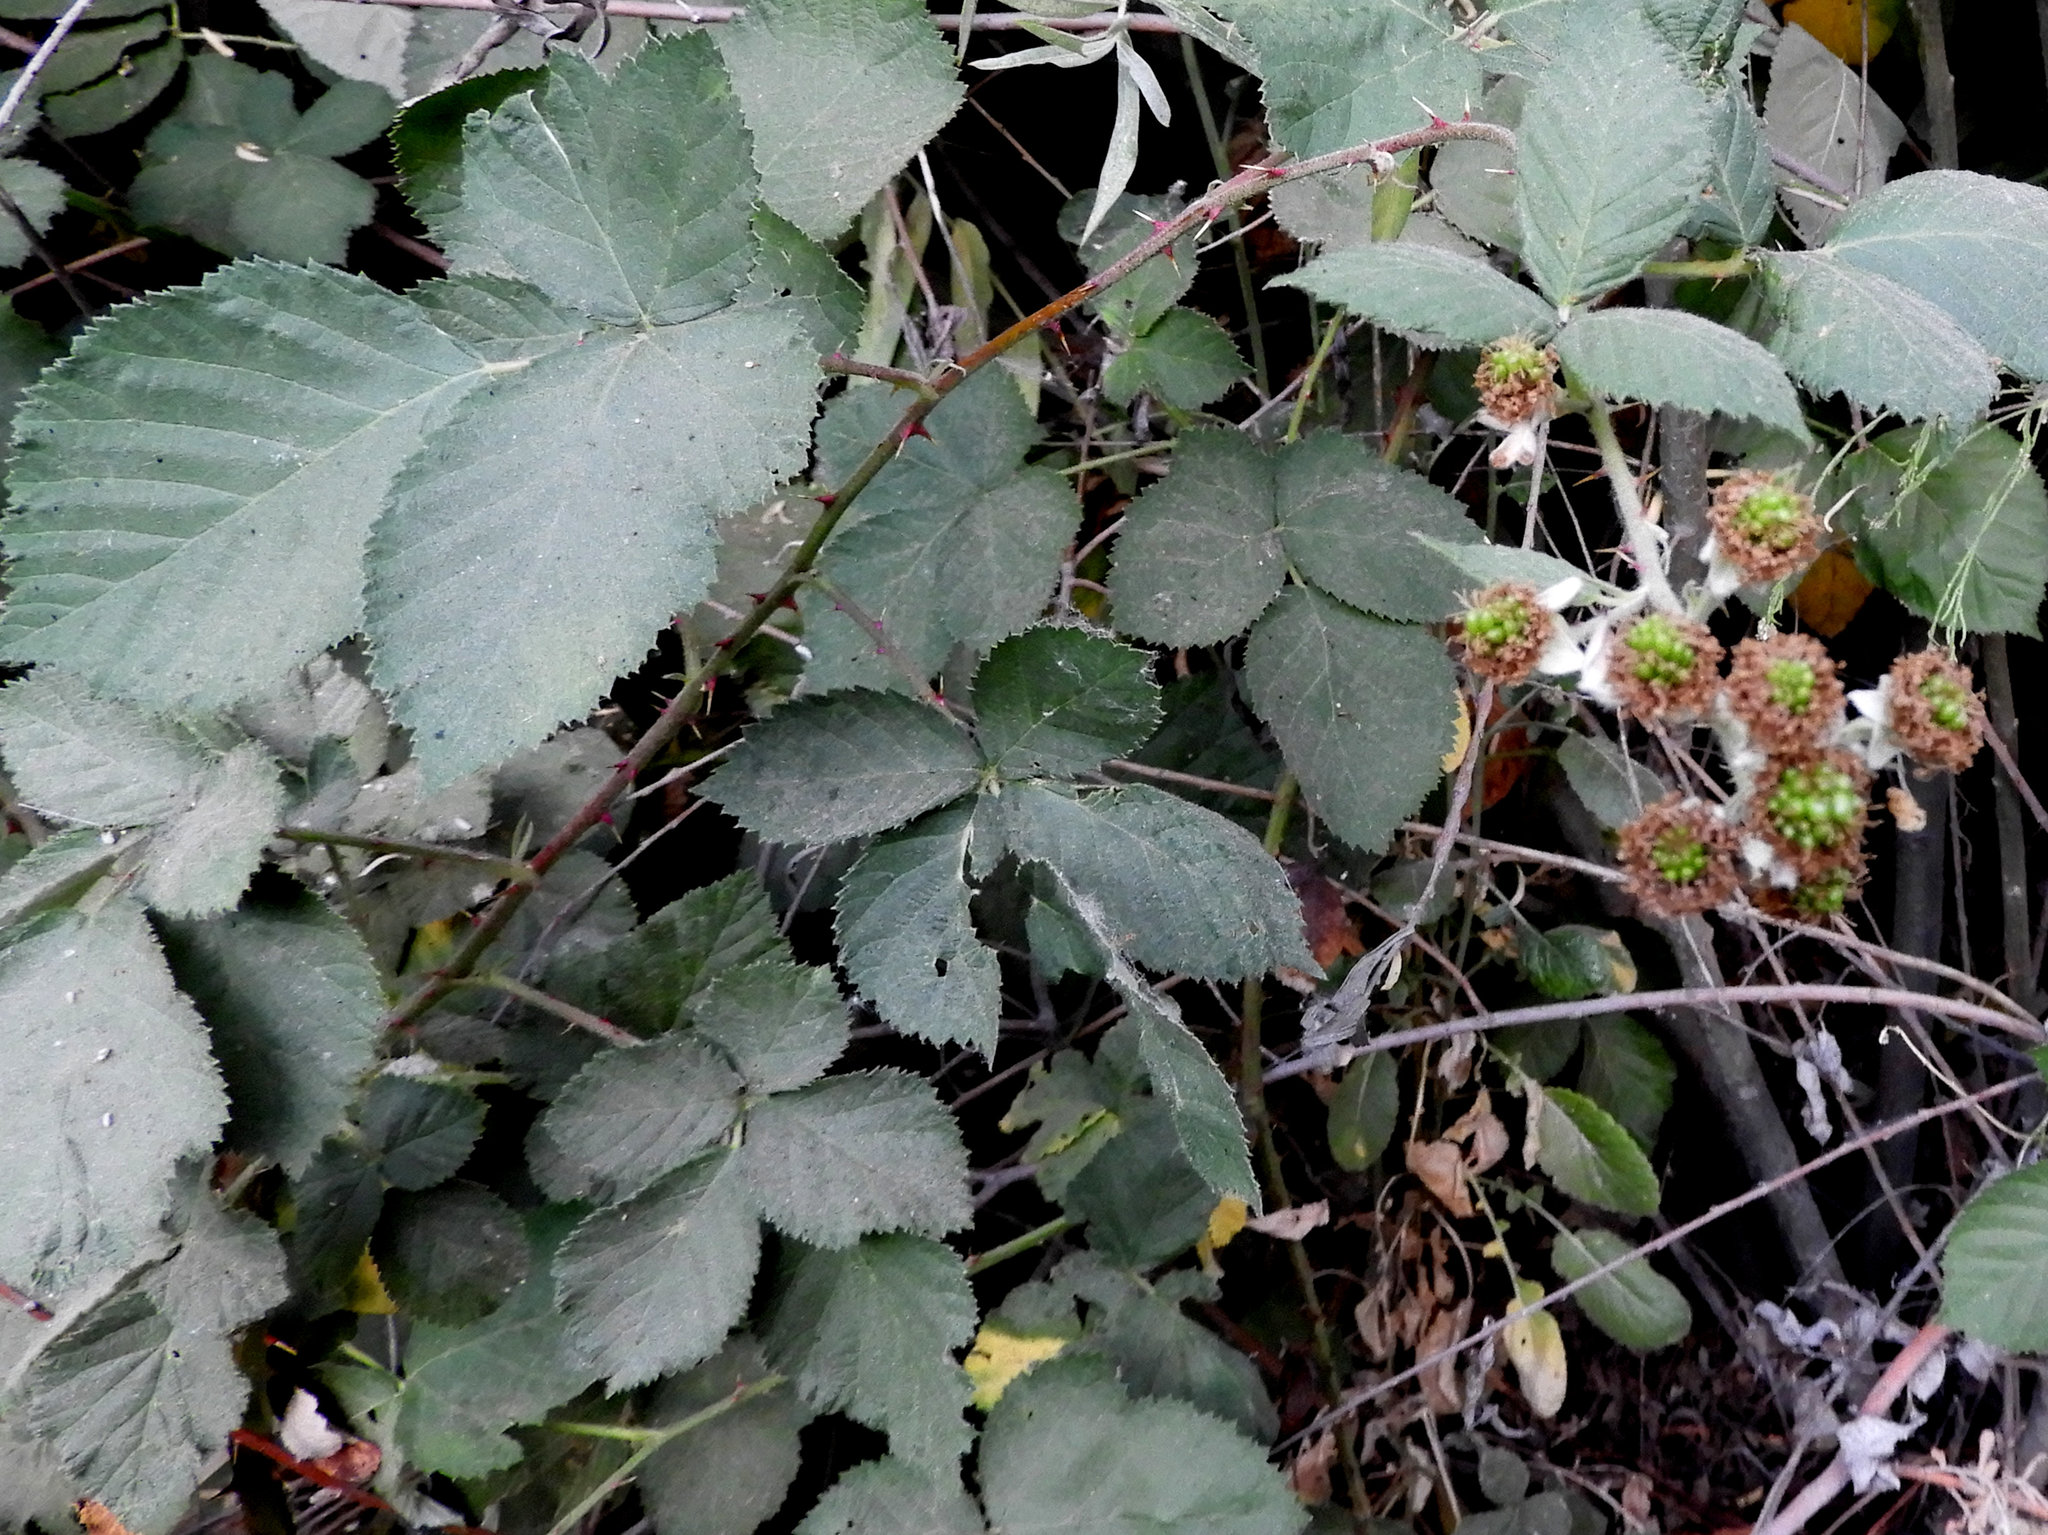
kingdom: Plantae
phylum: Tracheophyta
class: Magnoliopsida
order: Rosales
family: Rosaceae
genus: Rubus
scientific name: Rubus armeniacus
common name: Himalayan blackberry
